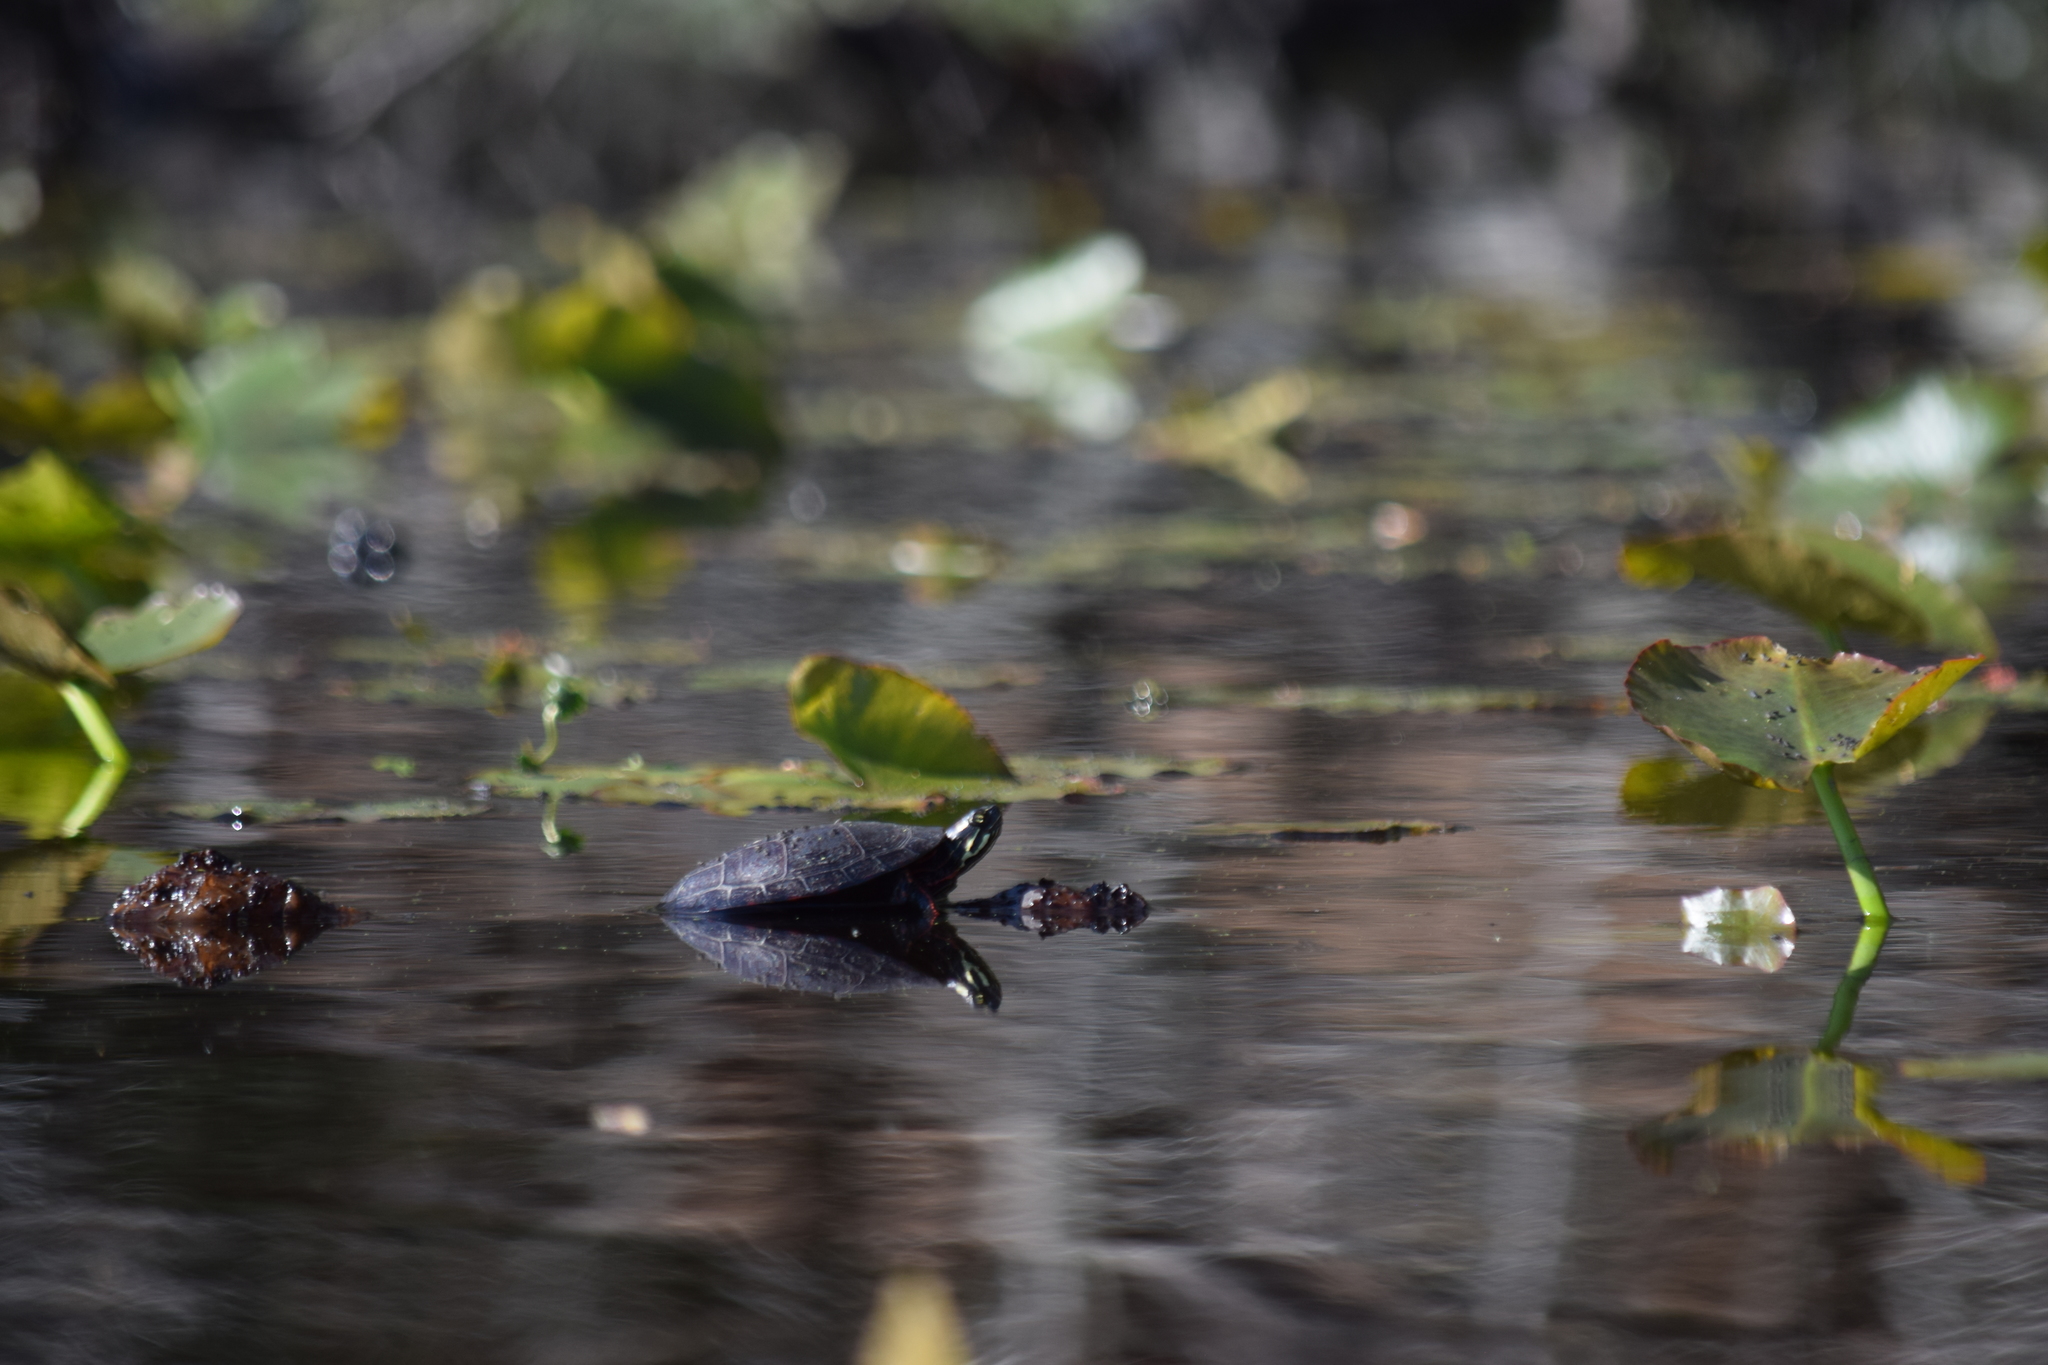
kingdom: Animalia
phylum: Chordata
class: Testudines
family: Emydidae
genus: Chrysemys
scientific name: Chrysemys picta
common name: Painted turtle
